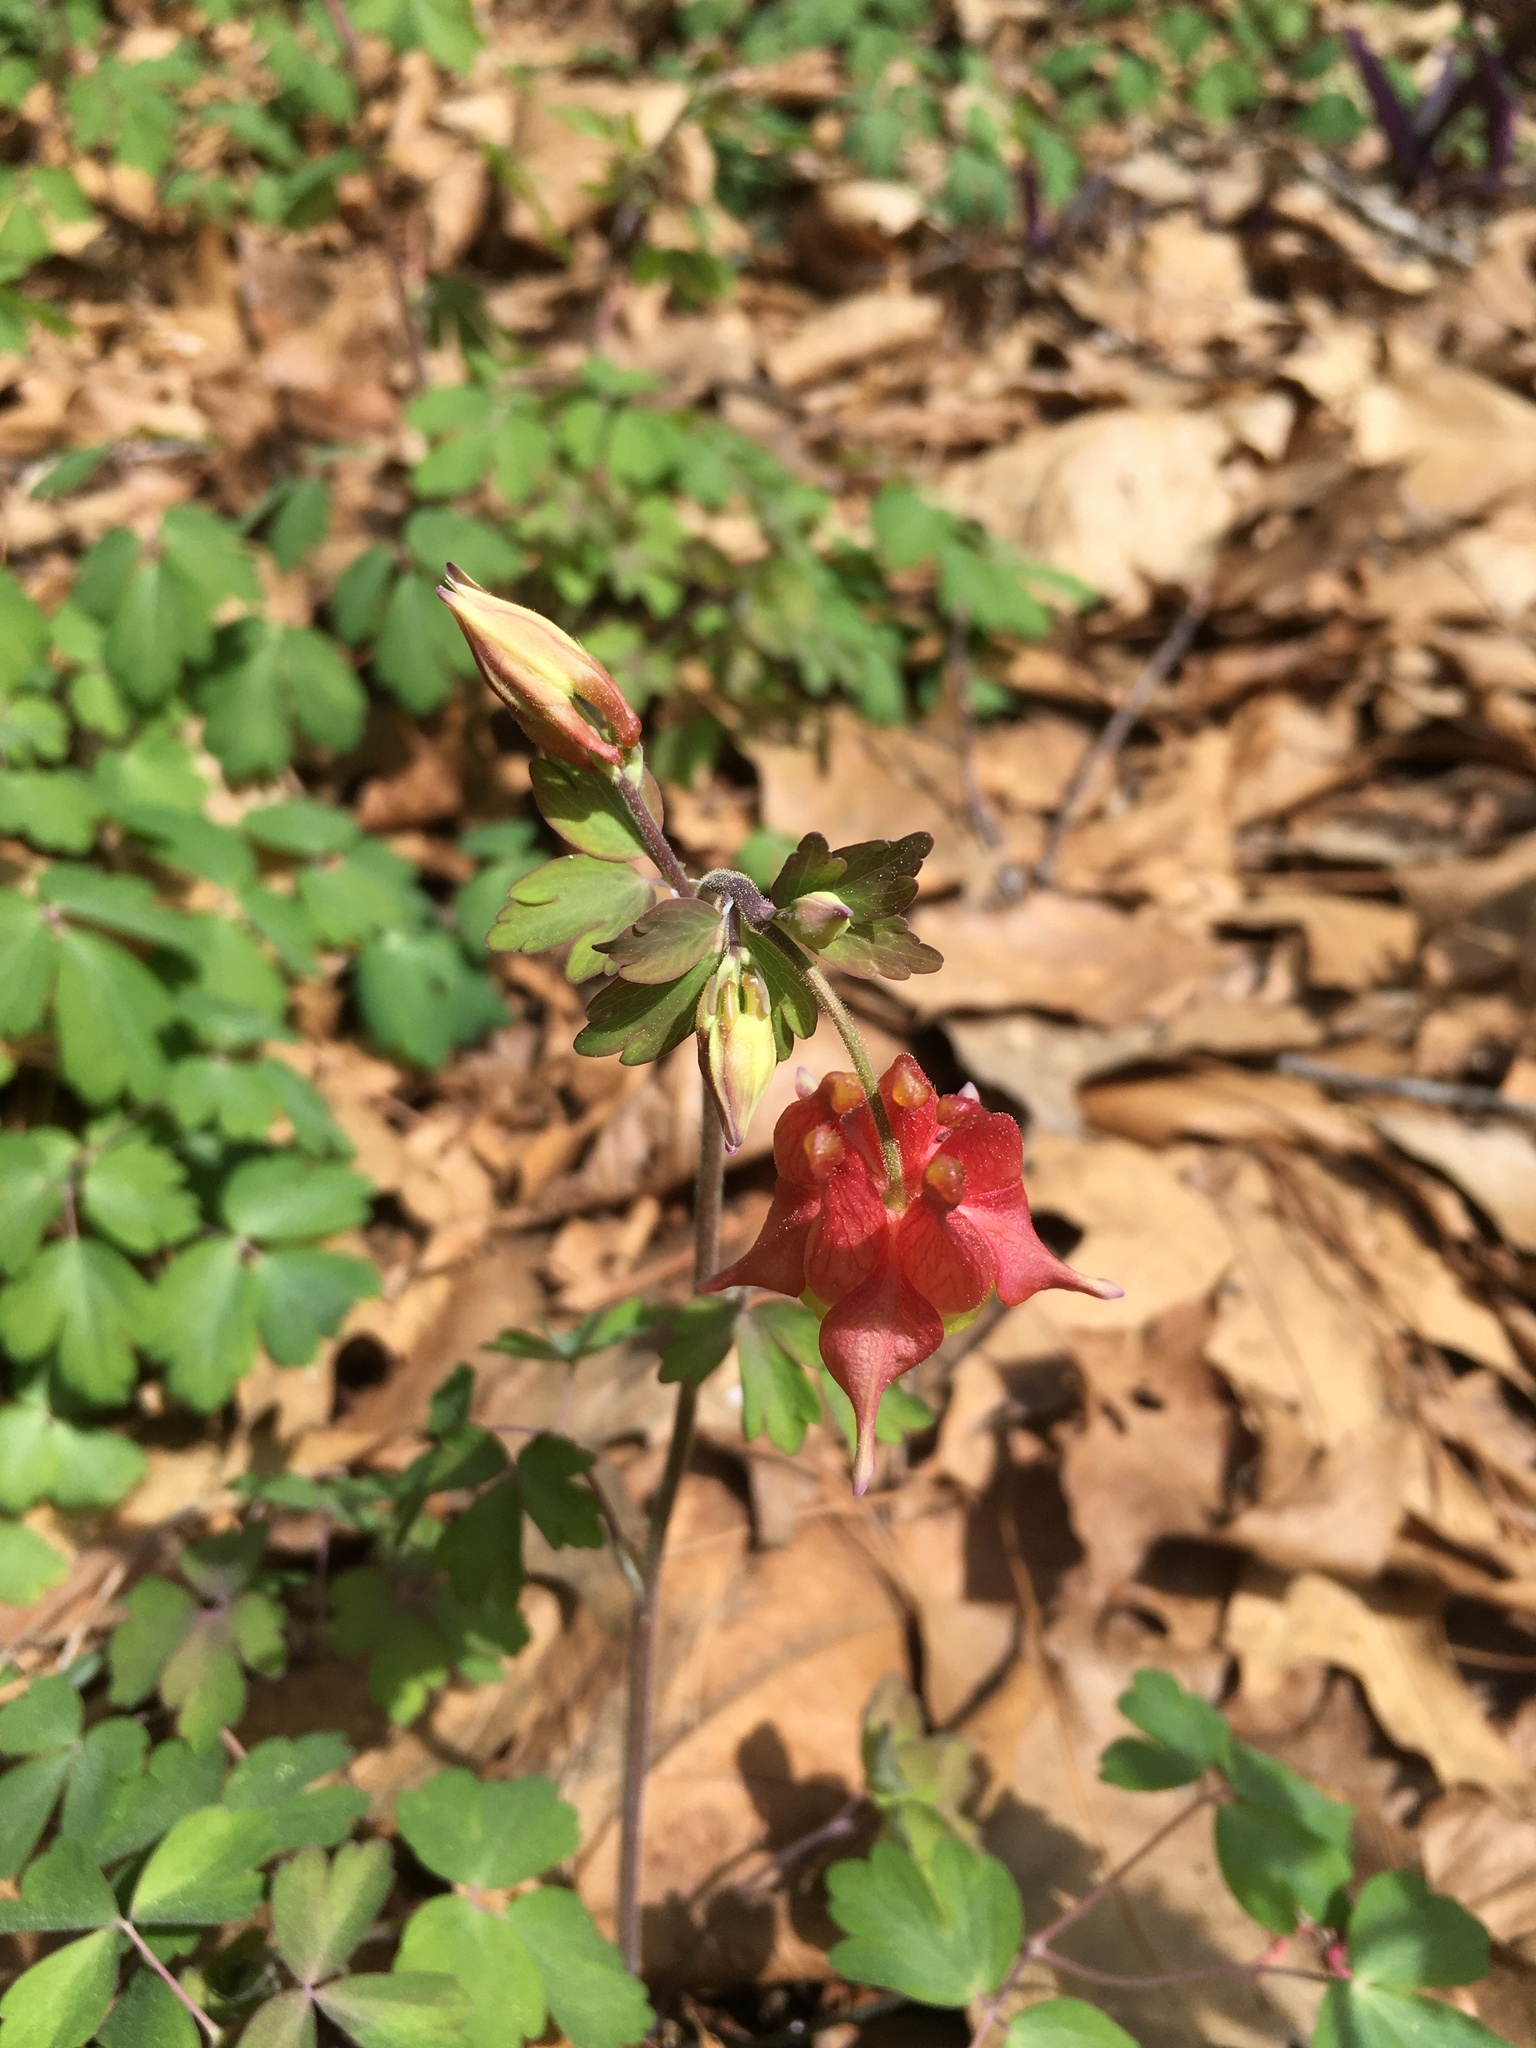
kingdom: Plantae
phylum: Tracheophyta
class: Magnoliopsida
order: Ranunculales
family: Ranunculaceae
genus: Aquilegia
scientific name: Aquilegia canadensis
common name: American columbine
